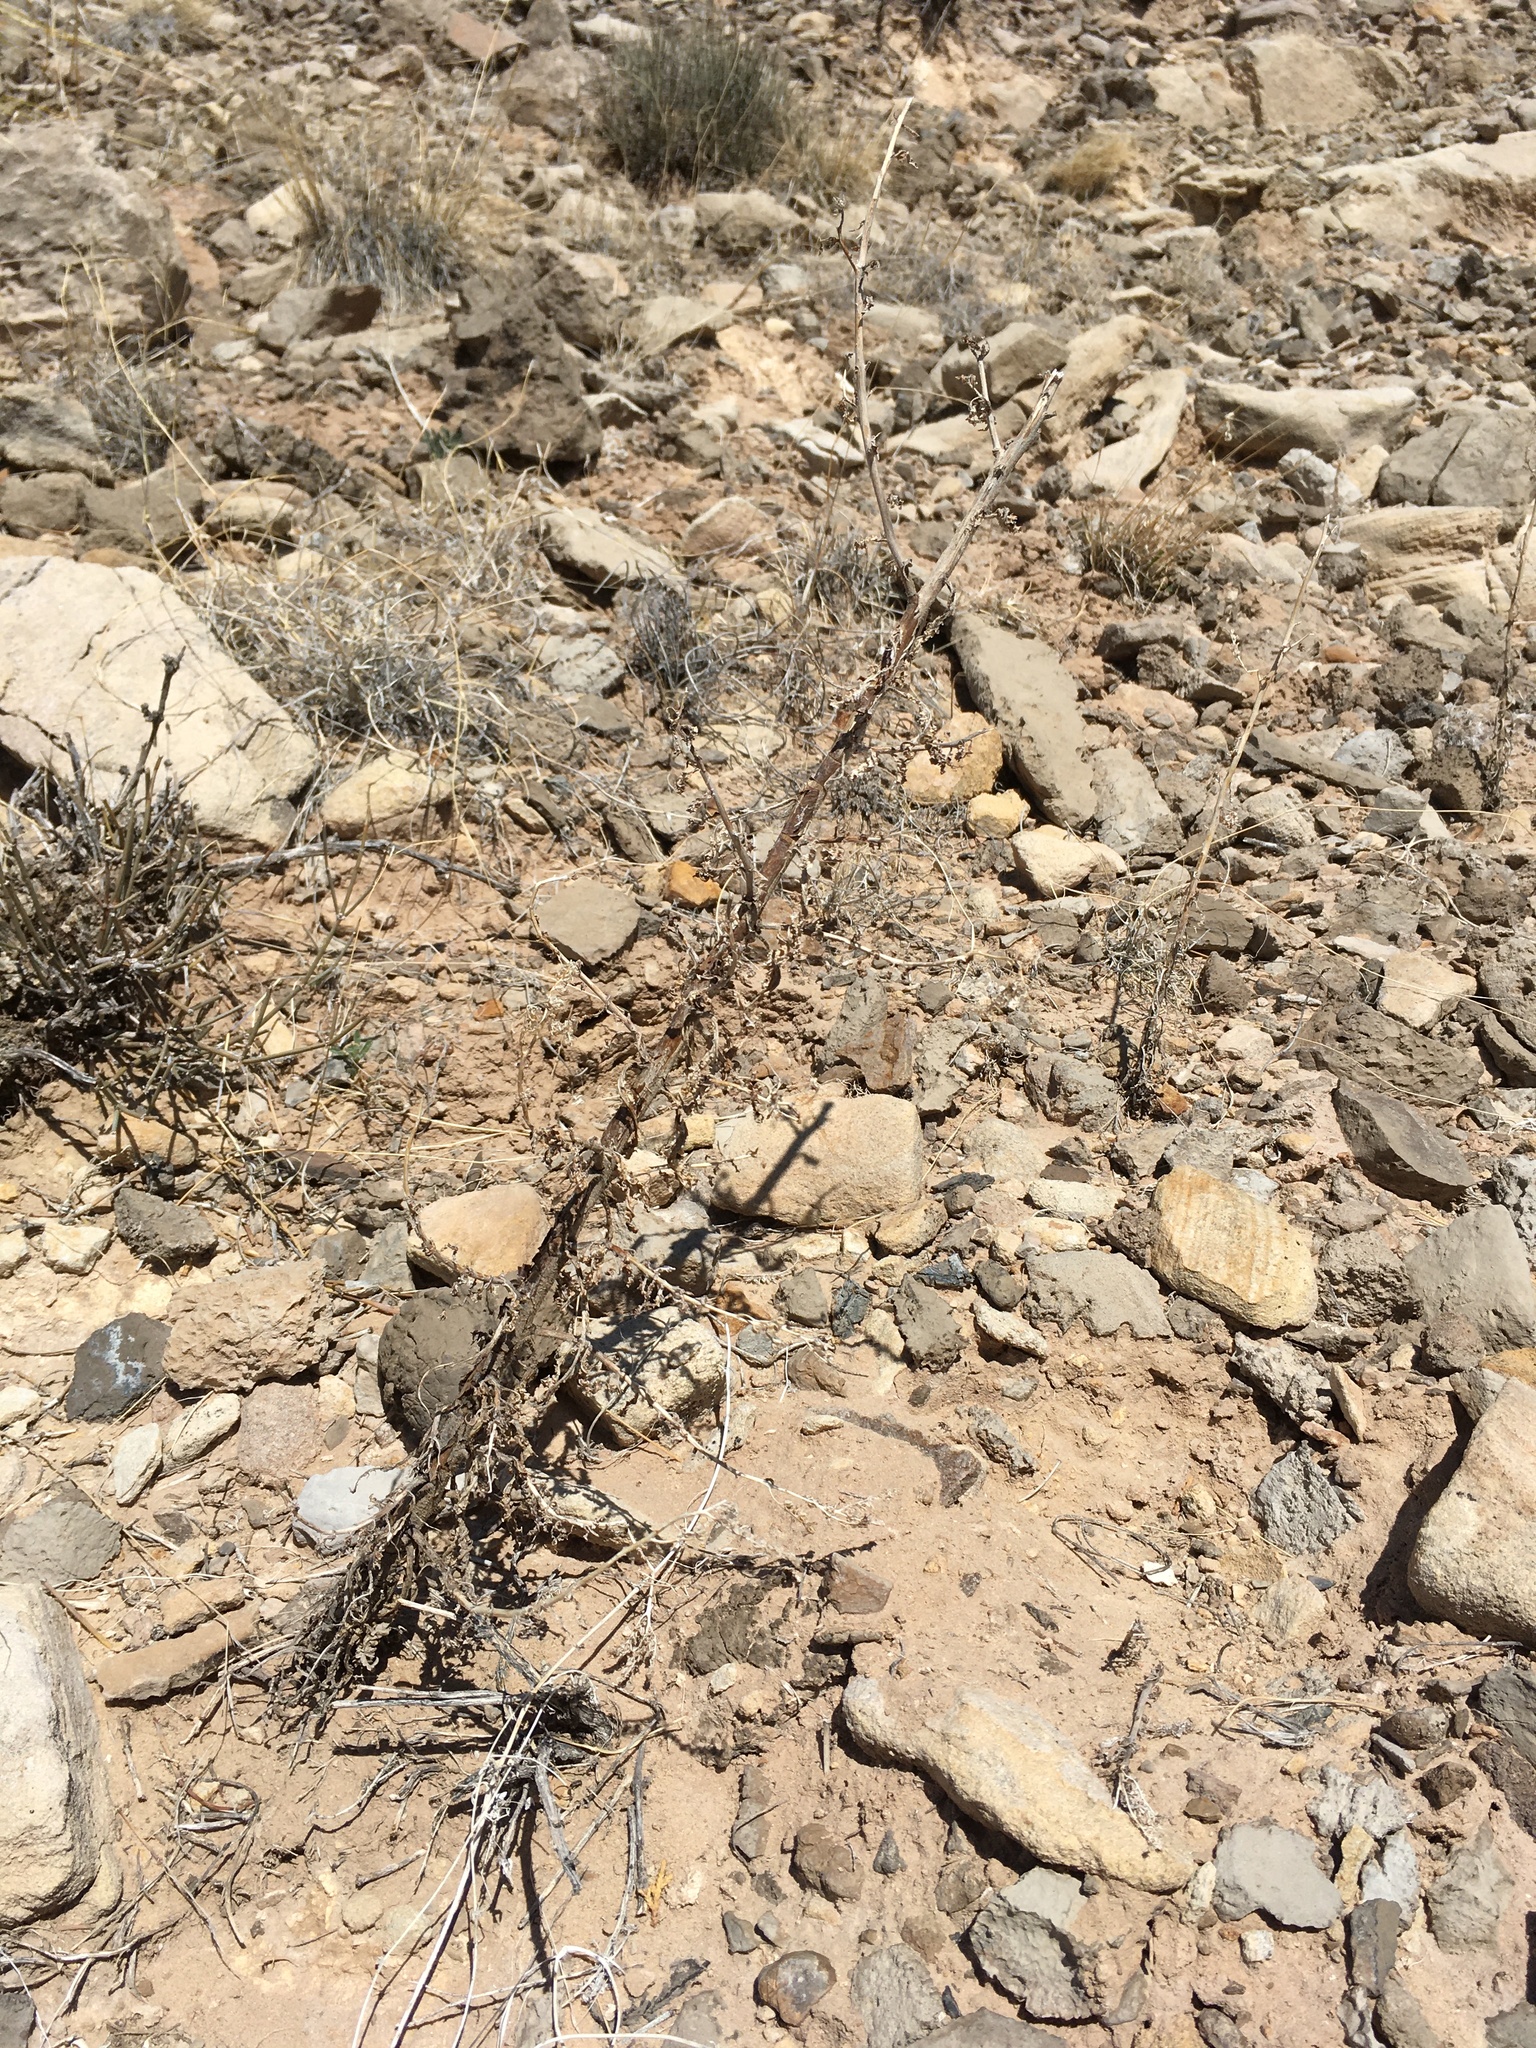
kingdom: Plantae
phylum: Tracheophyta
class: Magnoliopsida
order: Boraginales
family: Hydrophyllaceae
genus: Phacelia
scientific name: Phacelia sivinskii
